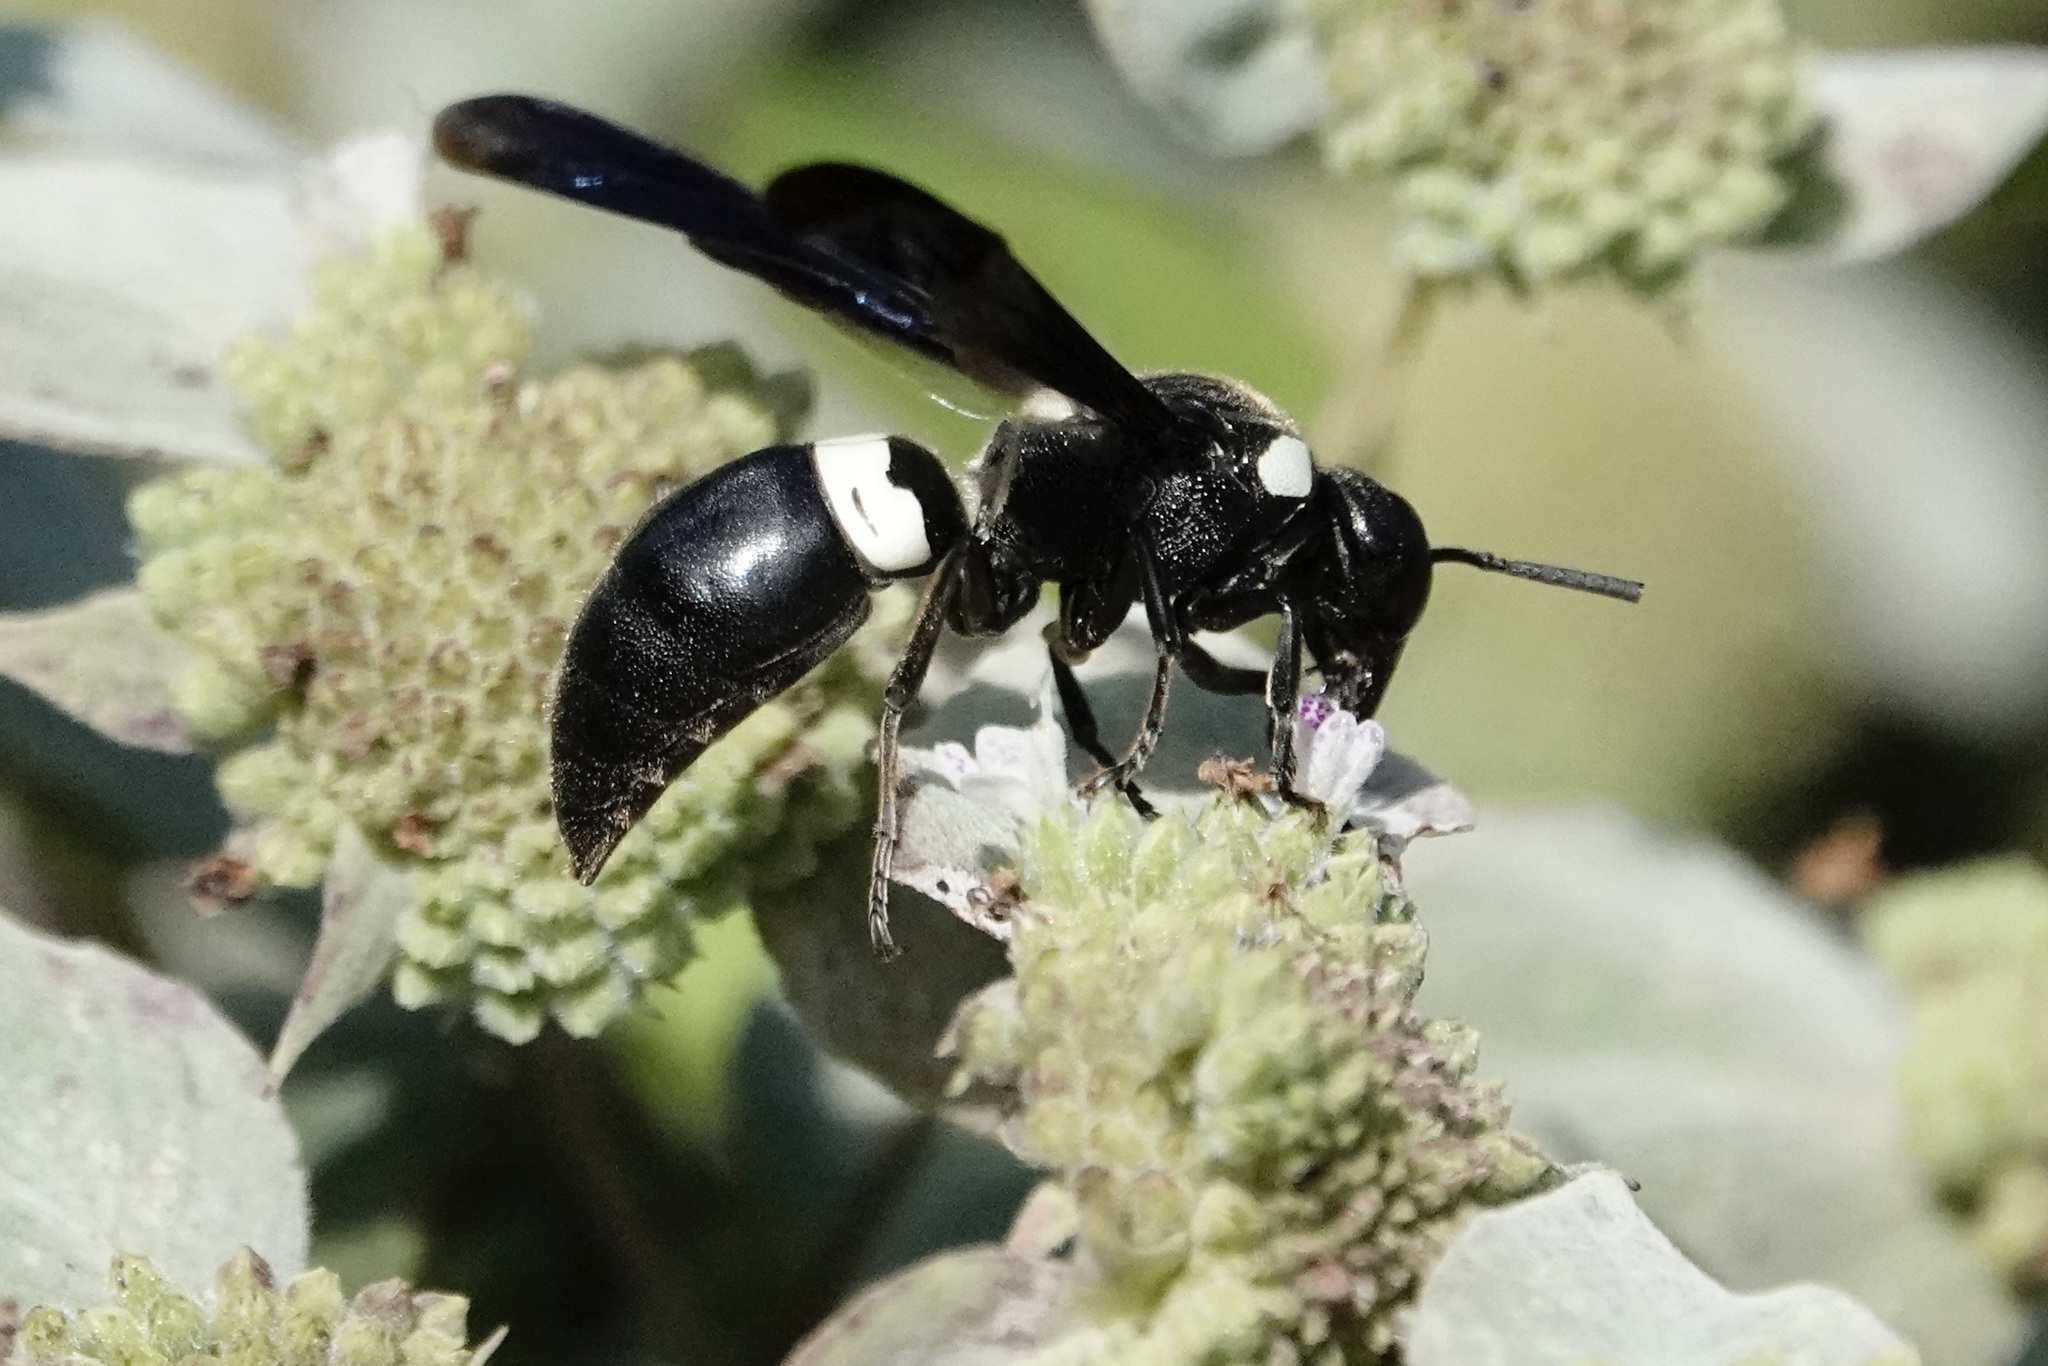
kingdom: Animalia
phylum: Arthropoda
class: Insecta
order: Hymenoptera
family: Eumenidae
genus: Monobia
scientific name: Monobia quadridens
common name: Four-toothed mason wasp
